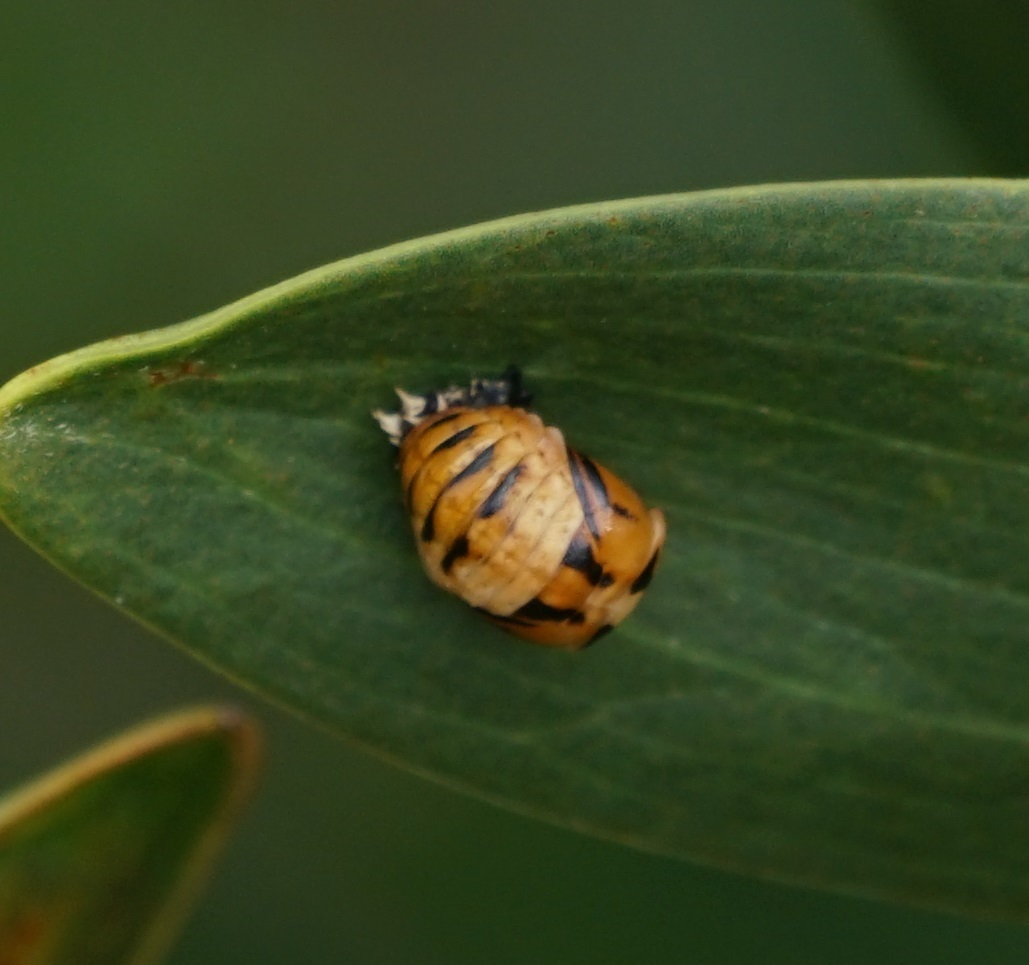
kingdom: Animalia
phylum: Arthropoda
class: Insecta
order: Coleoptera
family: Coccinellidae
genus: Harmonia
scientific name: Harmonia
